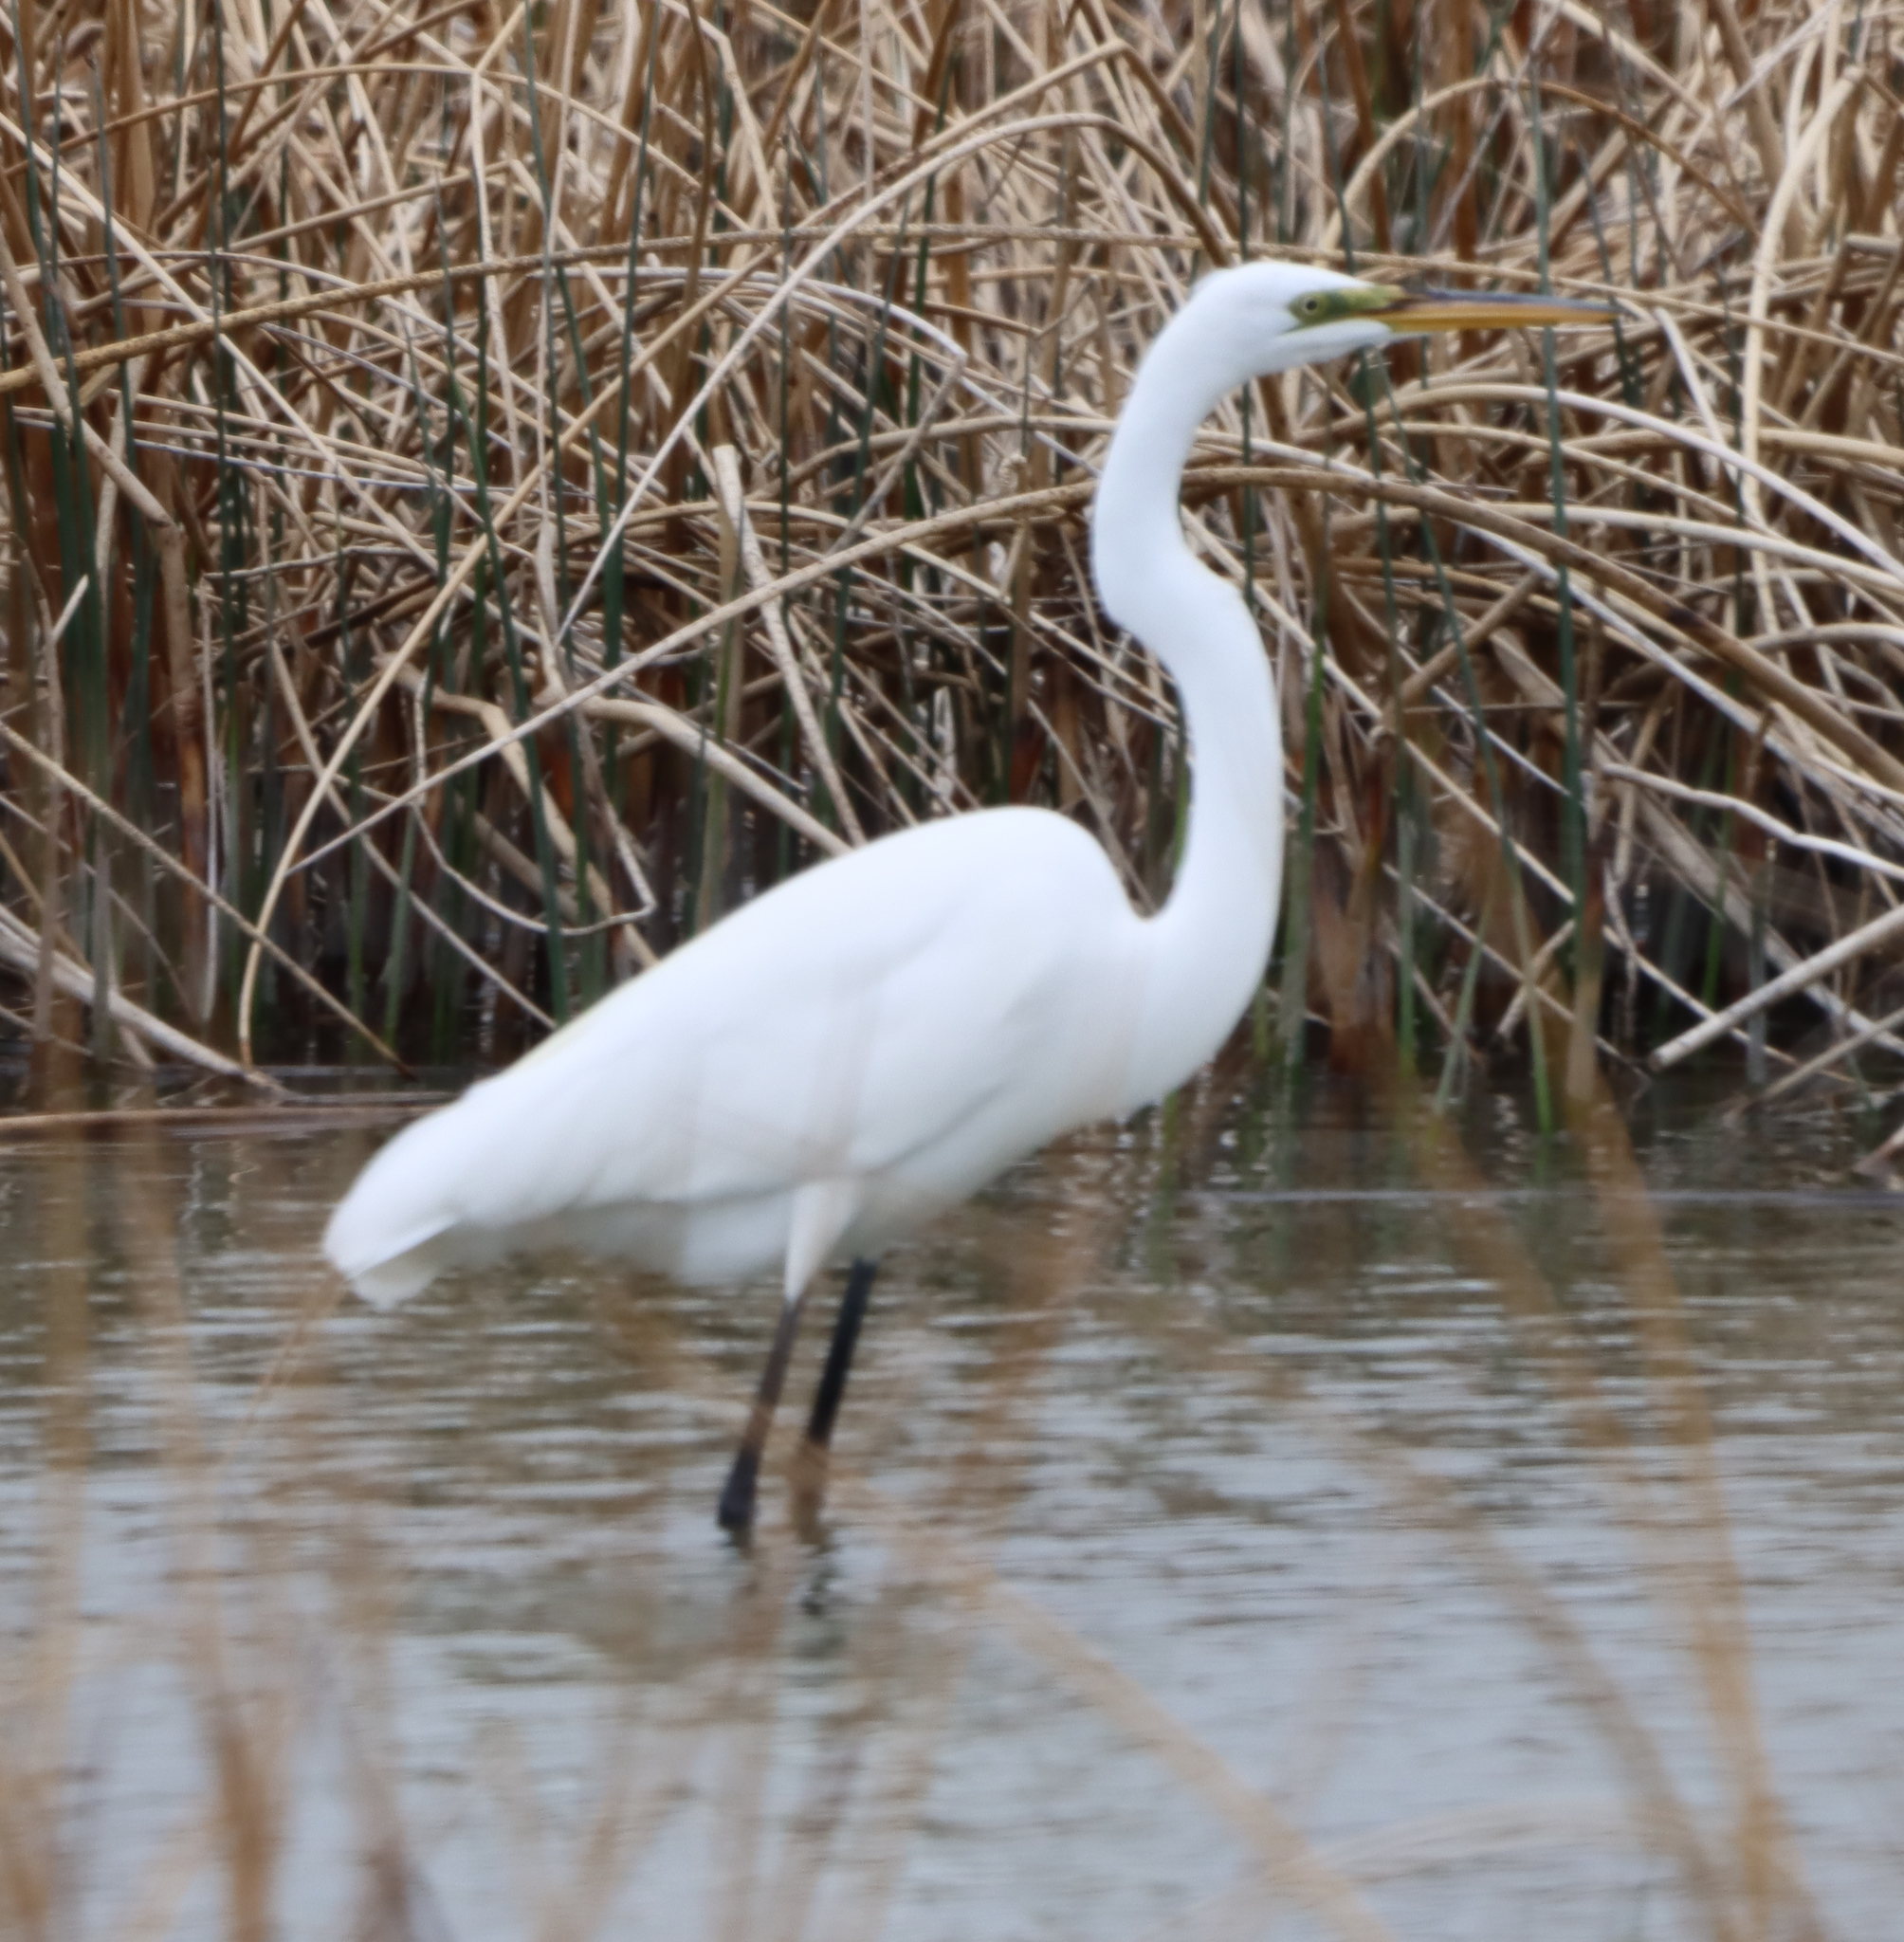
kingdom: Animalia
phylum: Chordata
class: Aves
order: Pelecaniformes
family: Ardeidae
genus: Ardea
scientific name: Ardea alba
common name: Great egret
